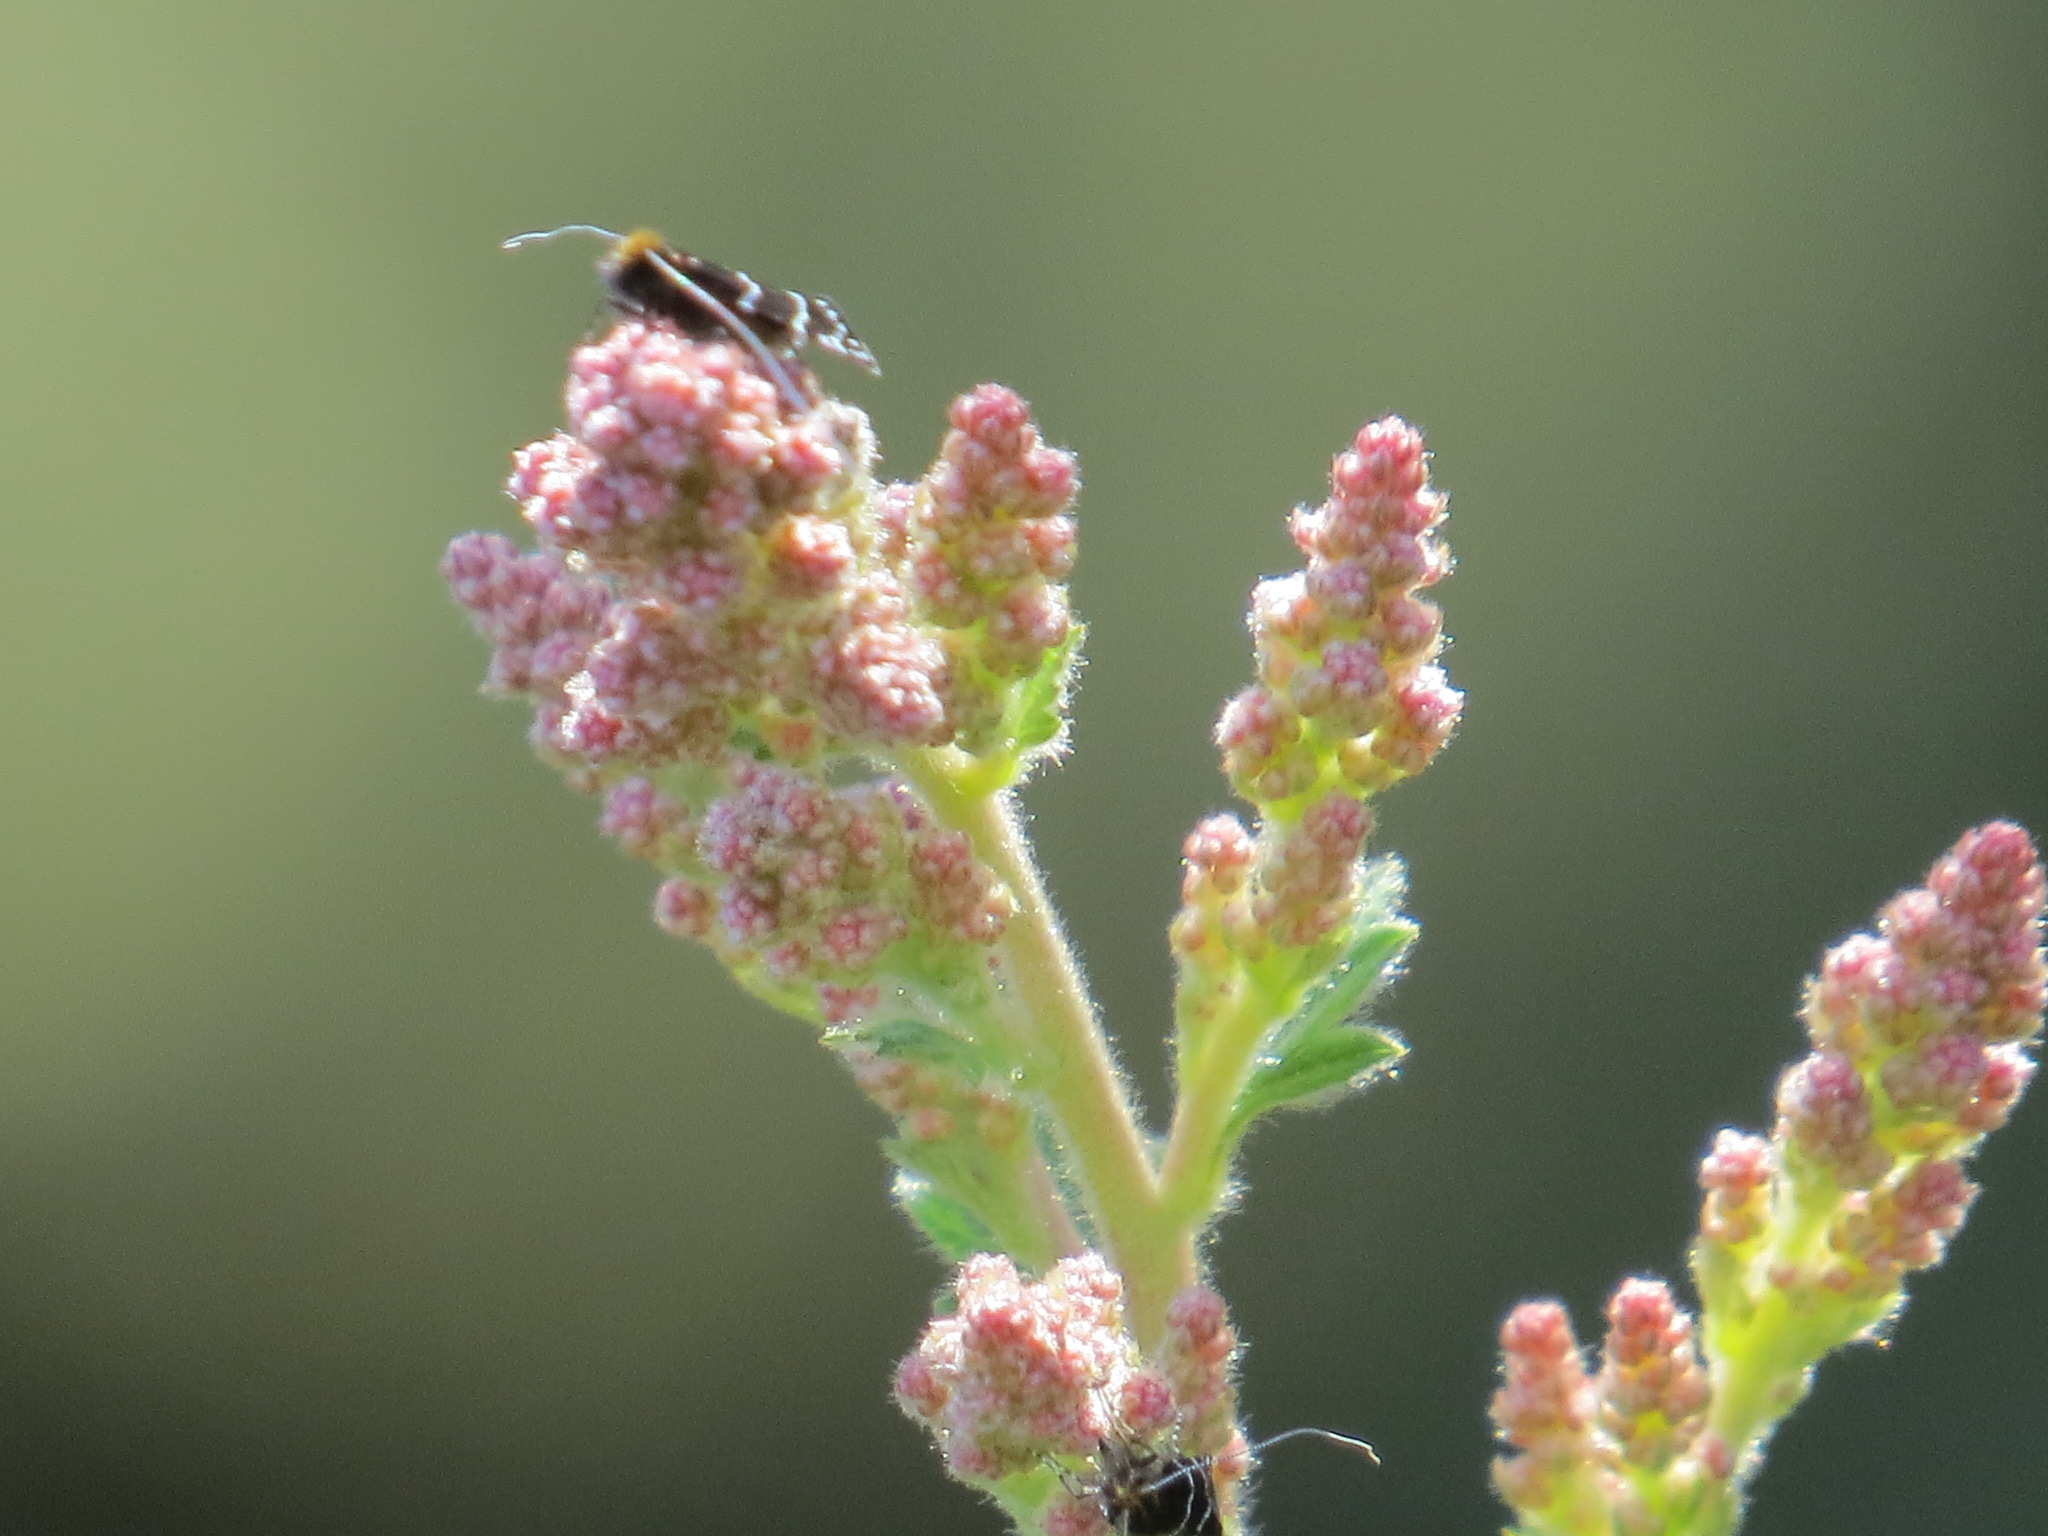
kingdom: Animalia
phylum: Arthropoda
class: Insecta
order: Lepidoptera
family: Adelidae
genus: Adela
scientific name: Adela septentrionella
